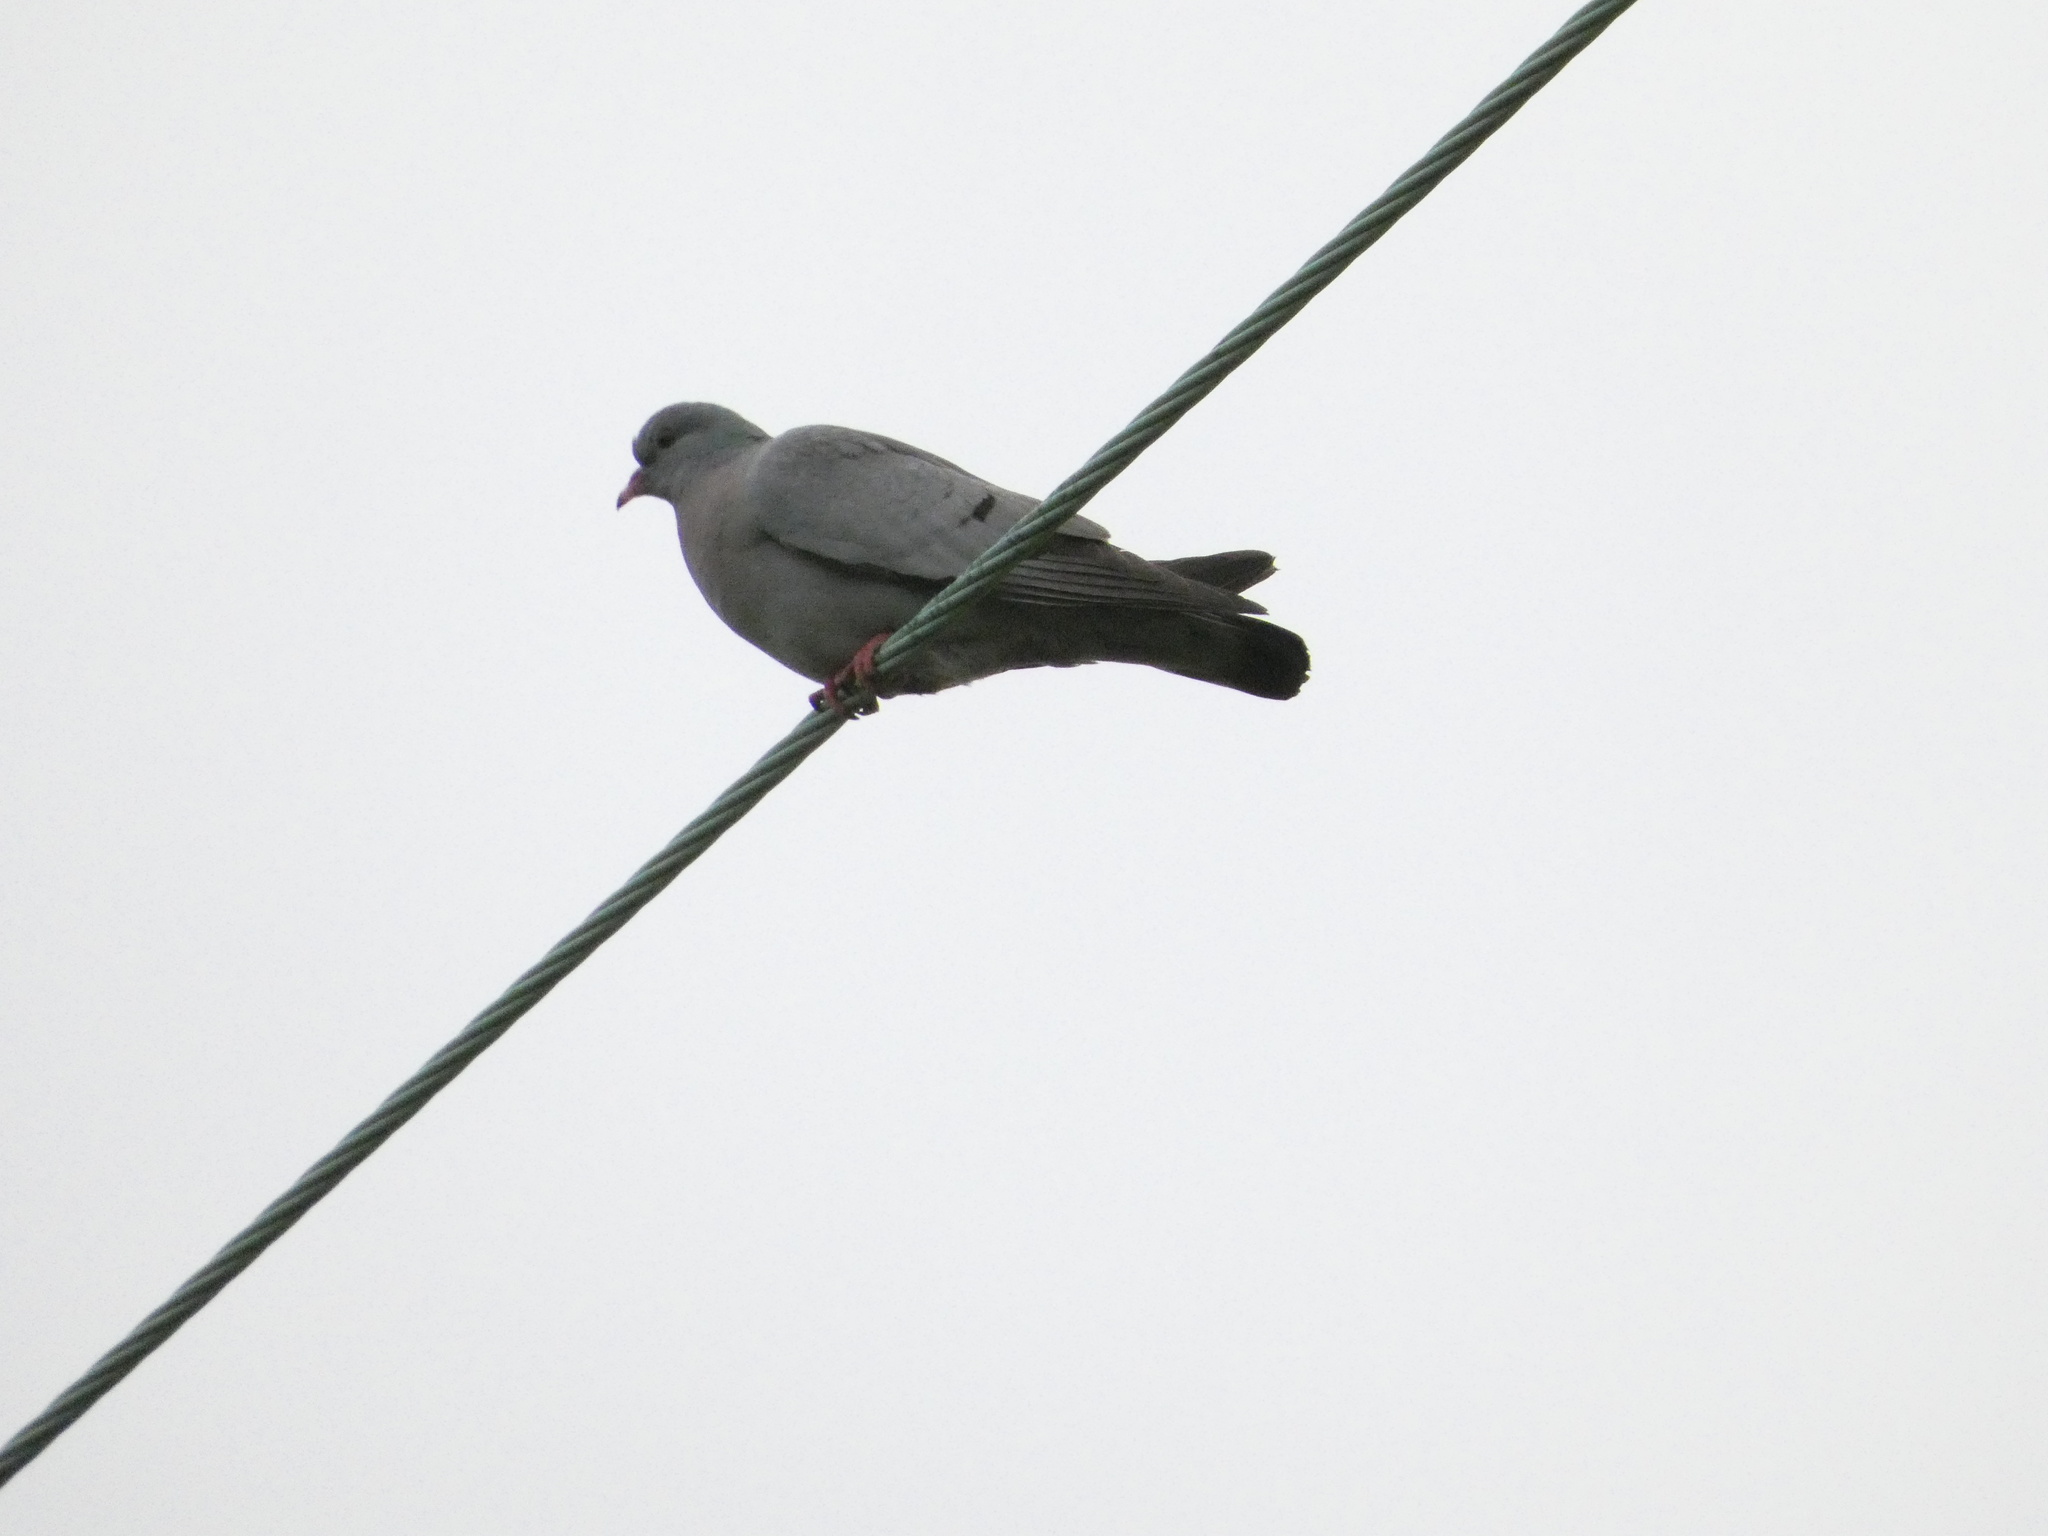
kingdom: Animalia
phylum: Chordata
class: Aves
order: Columbiformes
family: Columbidae
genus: Columba
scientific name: Columba oenas
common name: Stock dove
